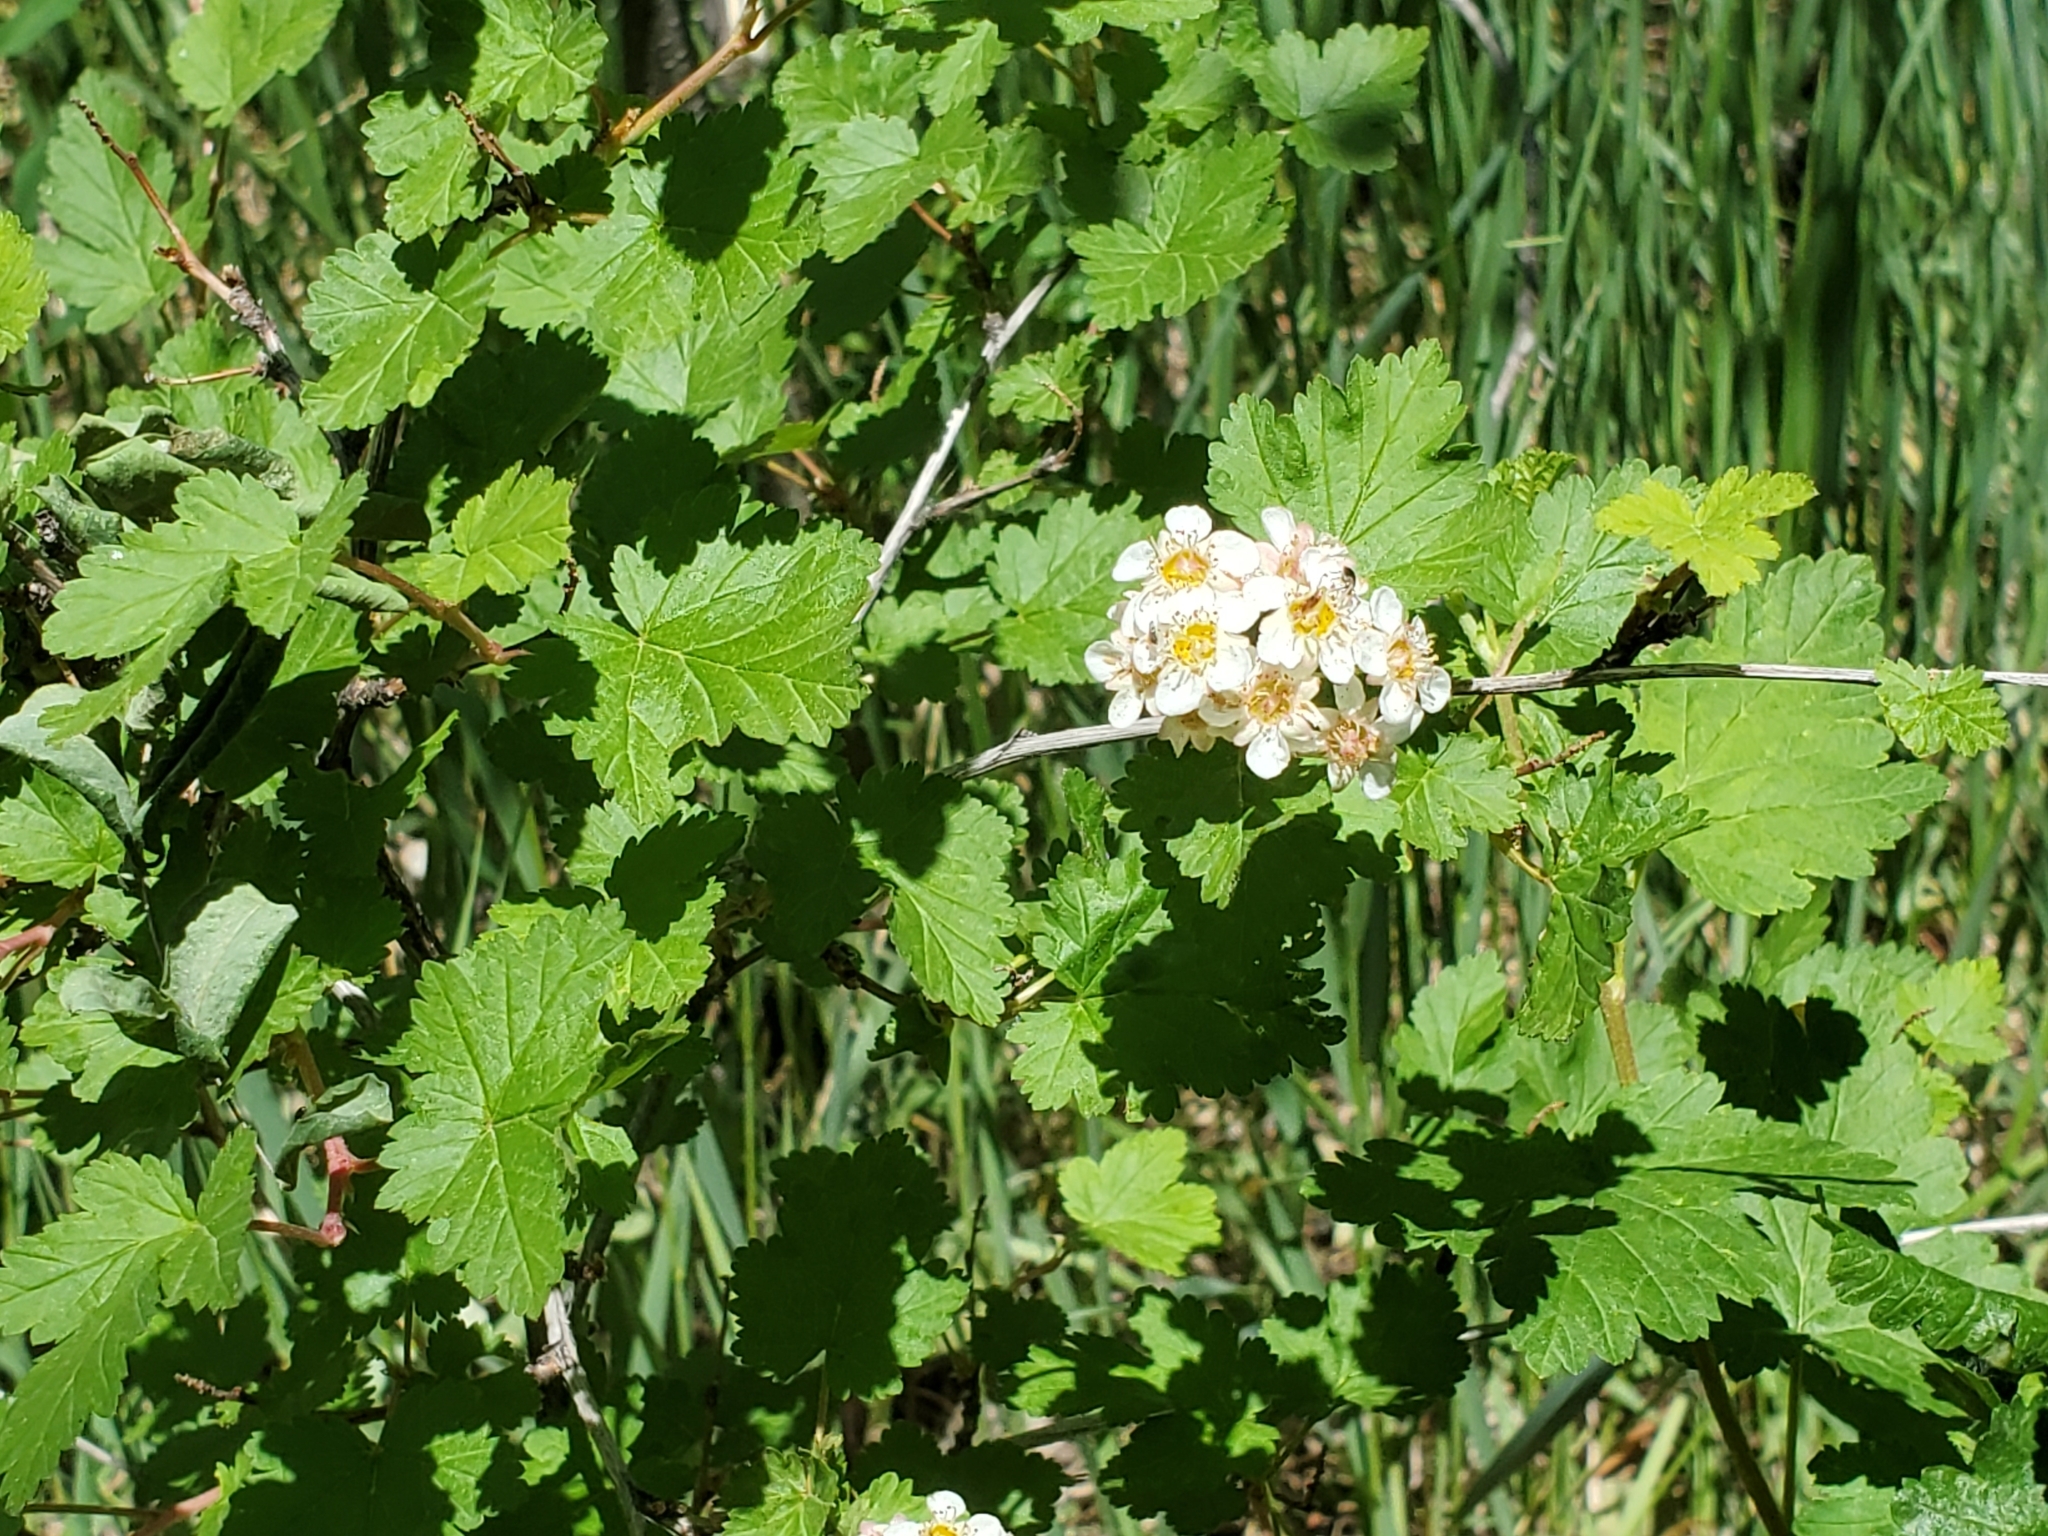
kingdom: Plantae
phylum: Tracheophyta
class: Magnoliopsida
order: Rosales
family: Rosaceae
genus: Physocarpus
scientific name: Physocarpus monogynus
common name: Mountain ninebark
